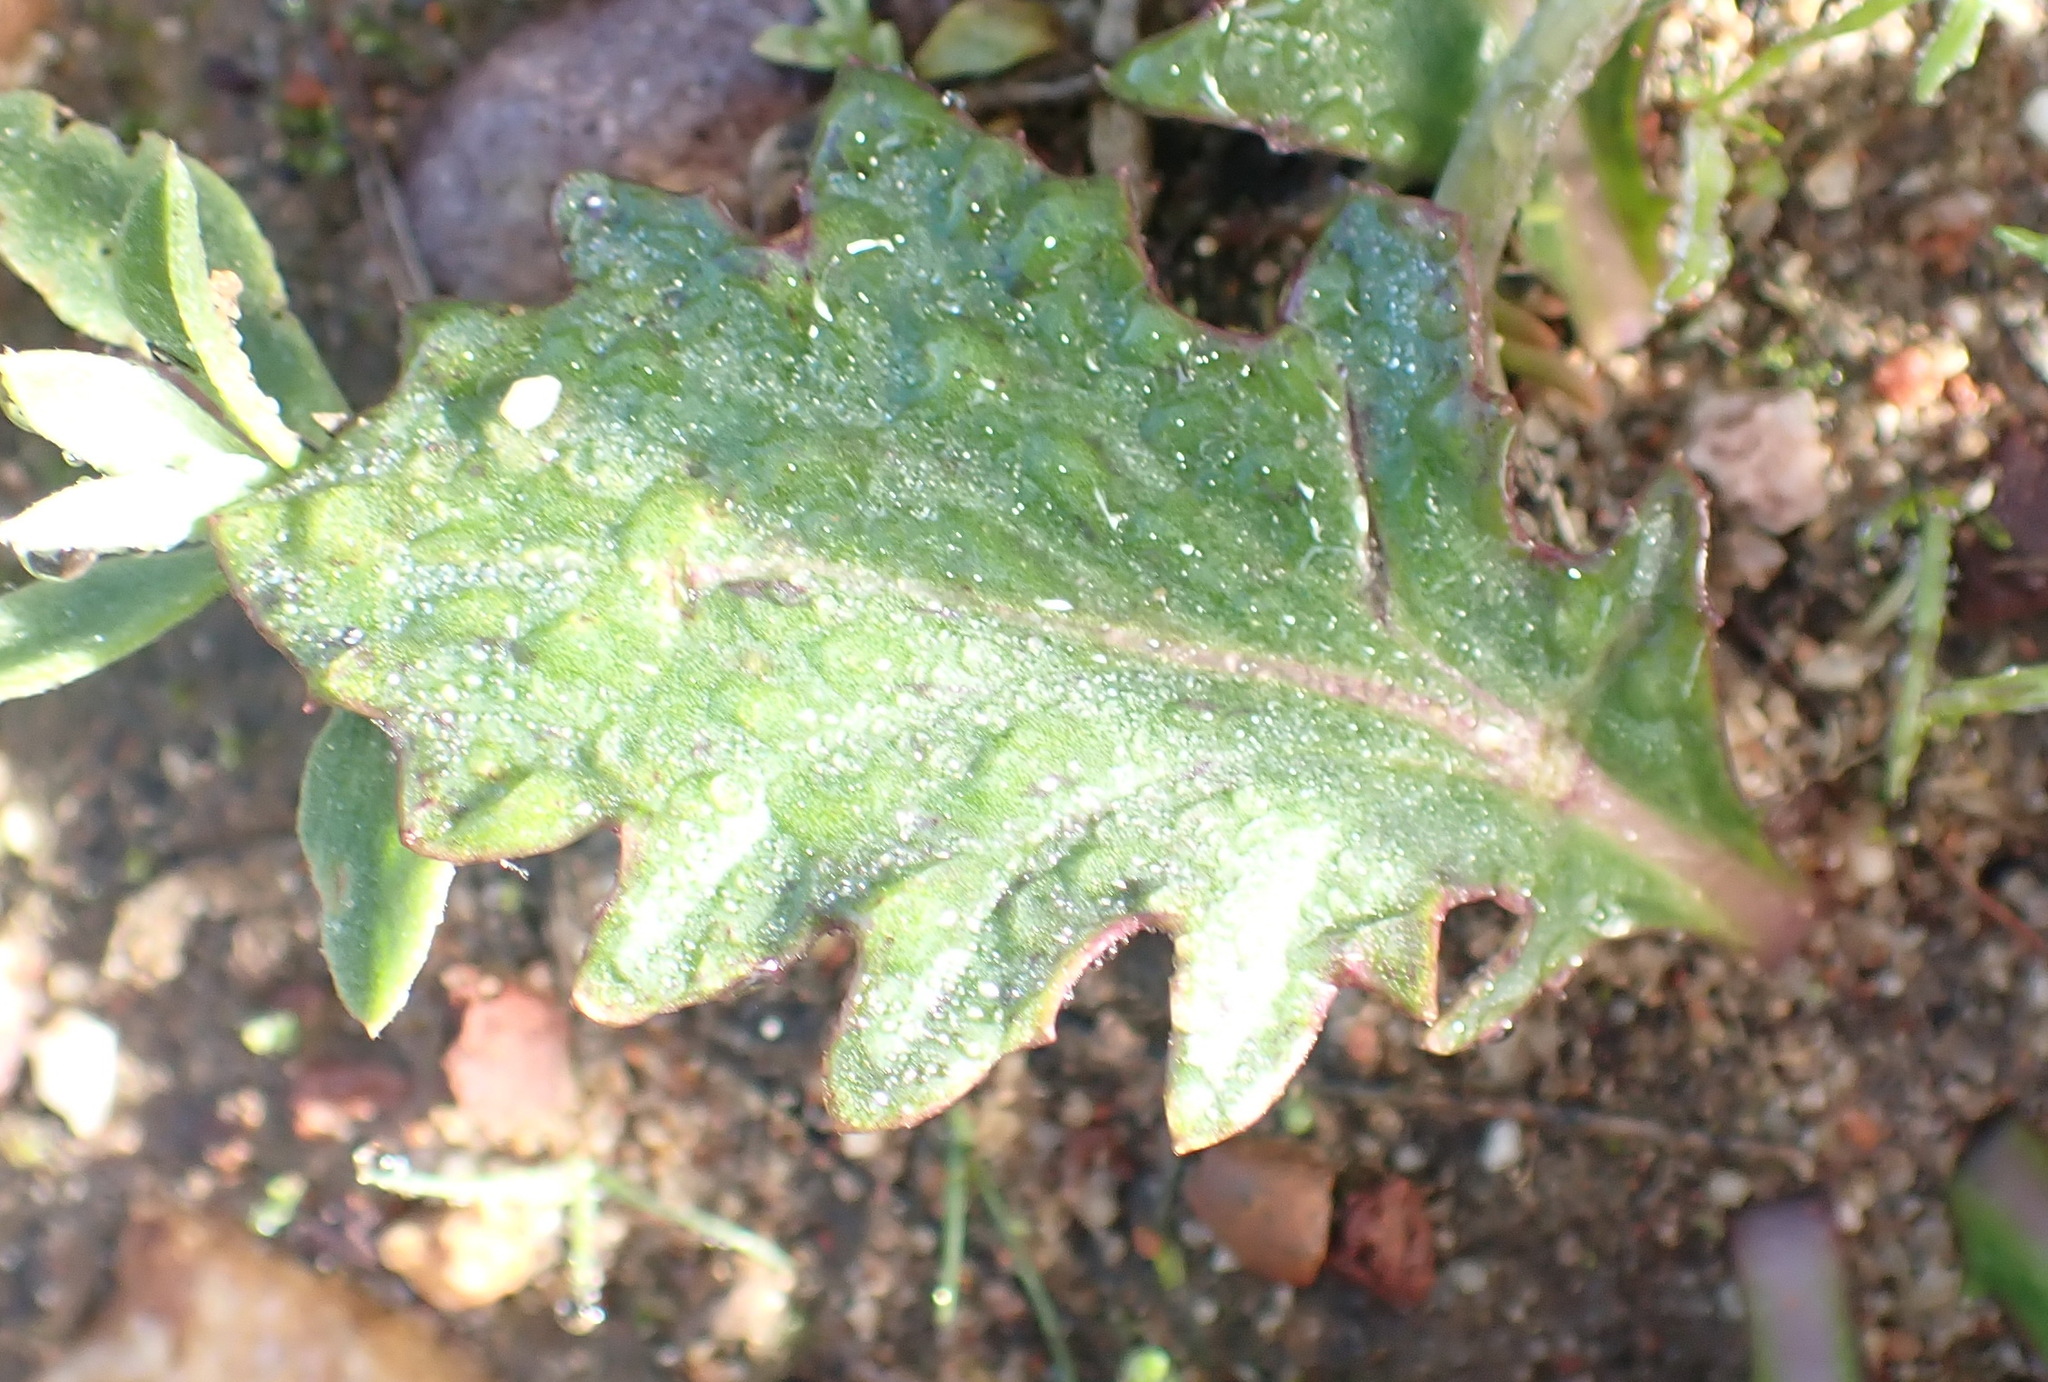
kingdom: Plantae
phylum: Tracheophyta
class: Magnoliopsida
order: Asterales
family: Asteraceae
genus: Othonna
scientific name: Othonna oleracea
